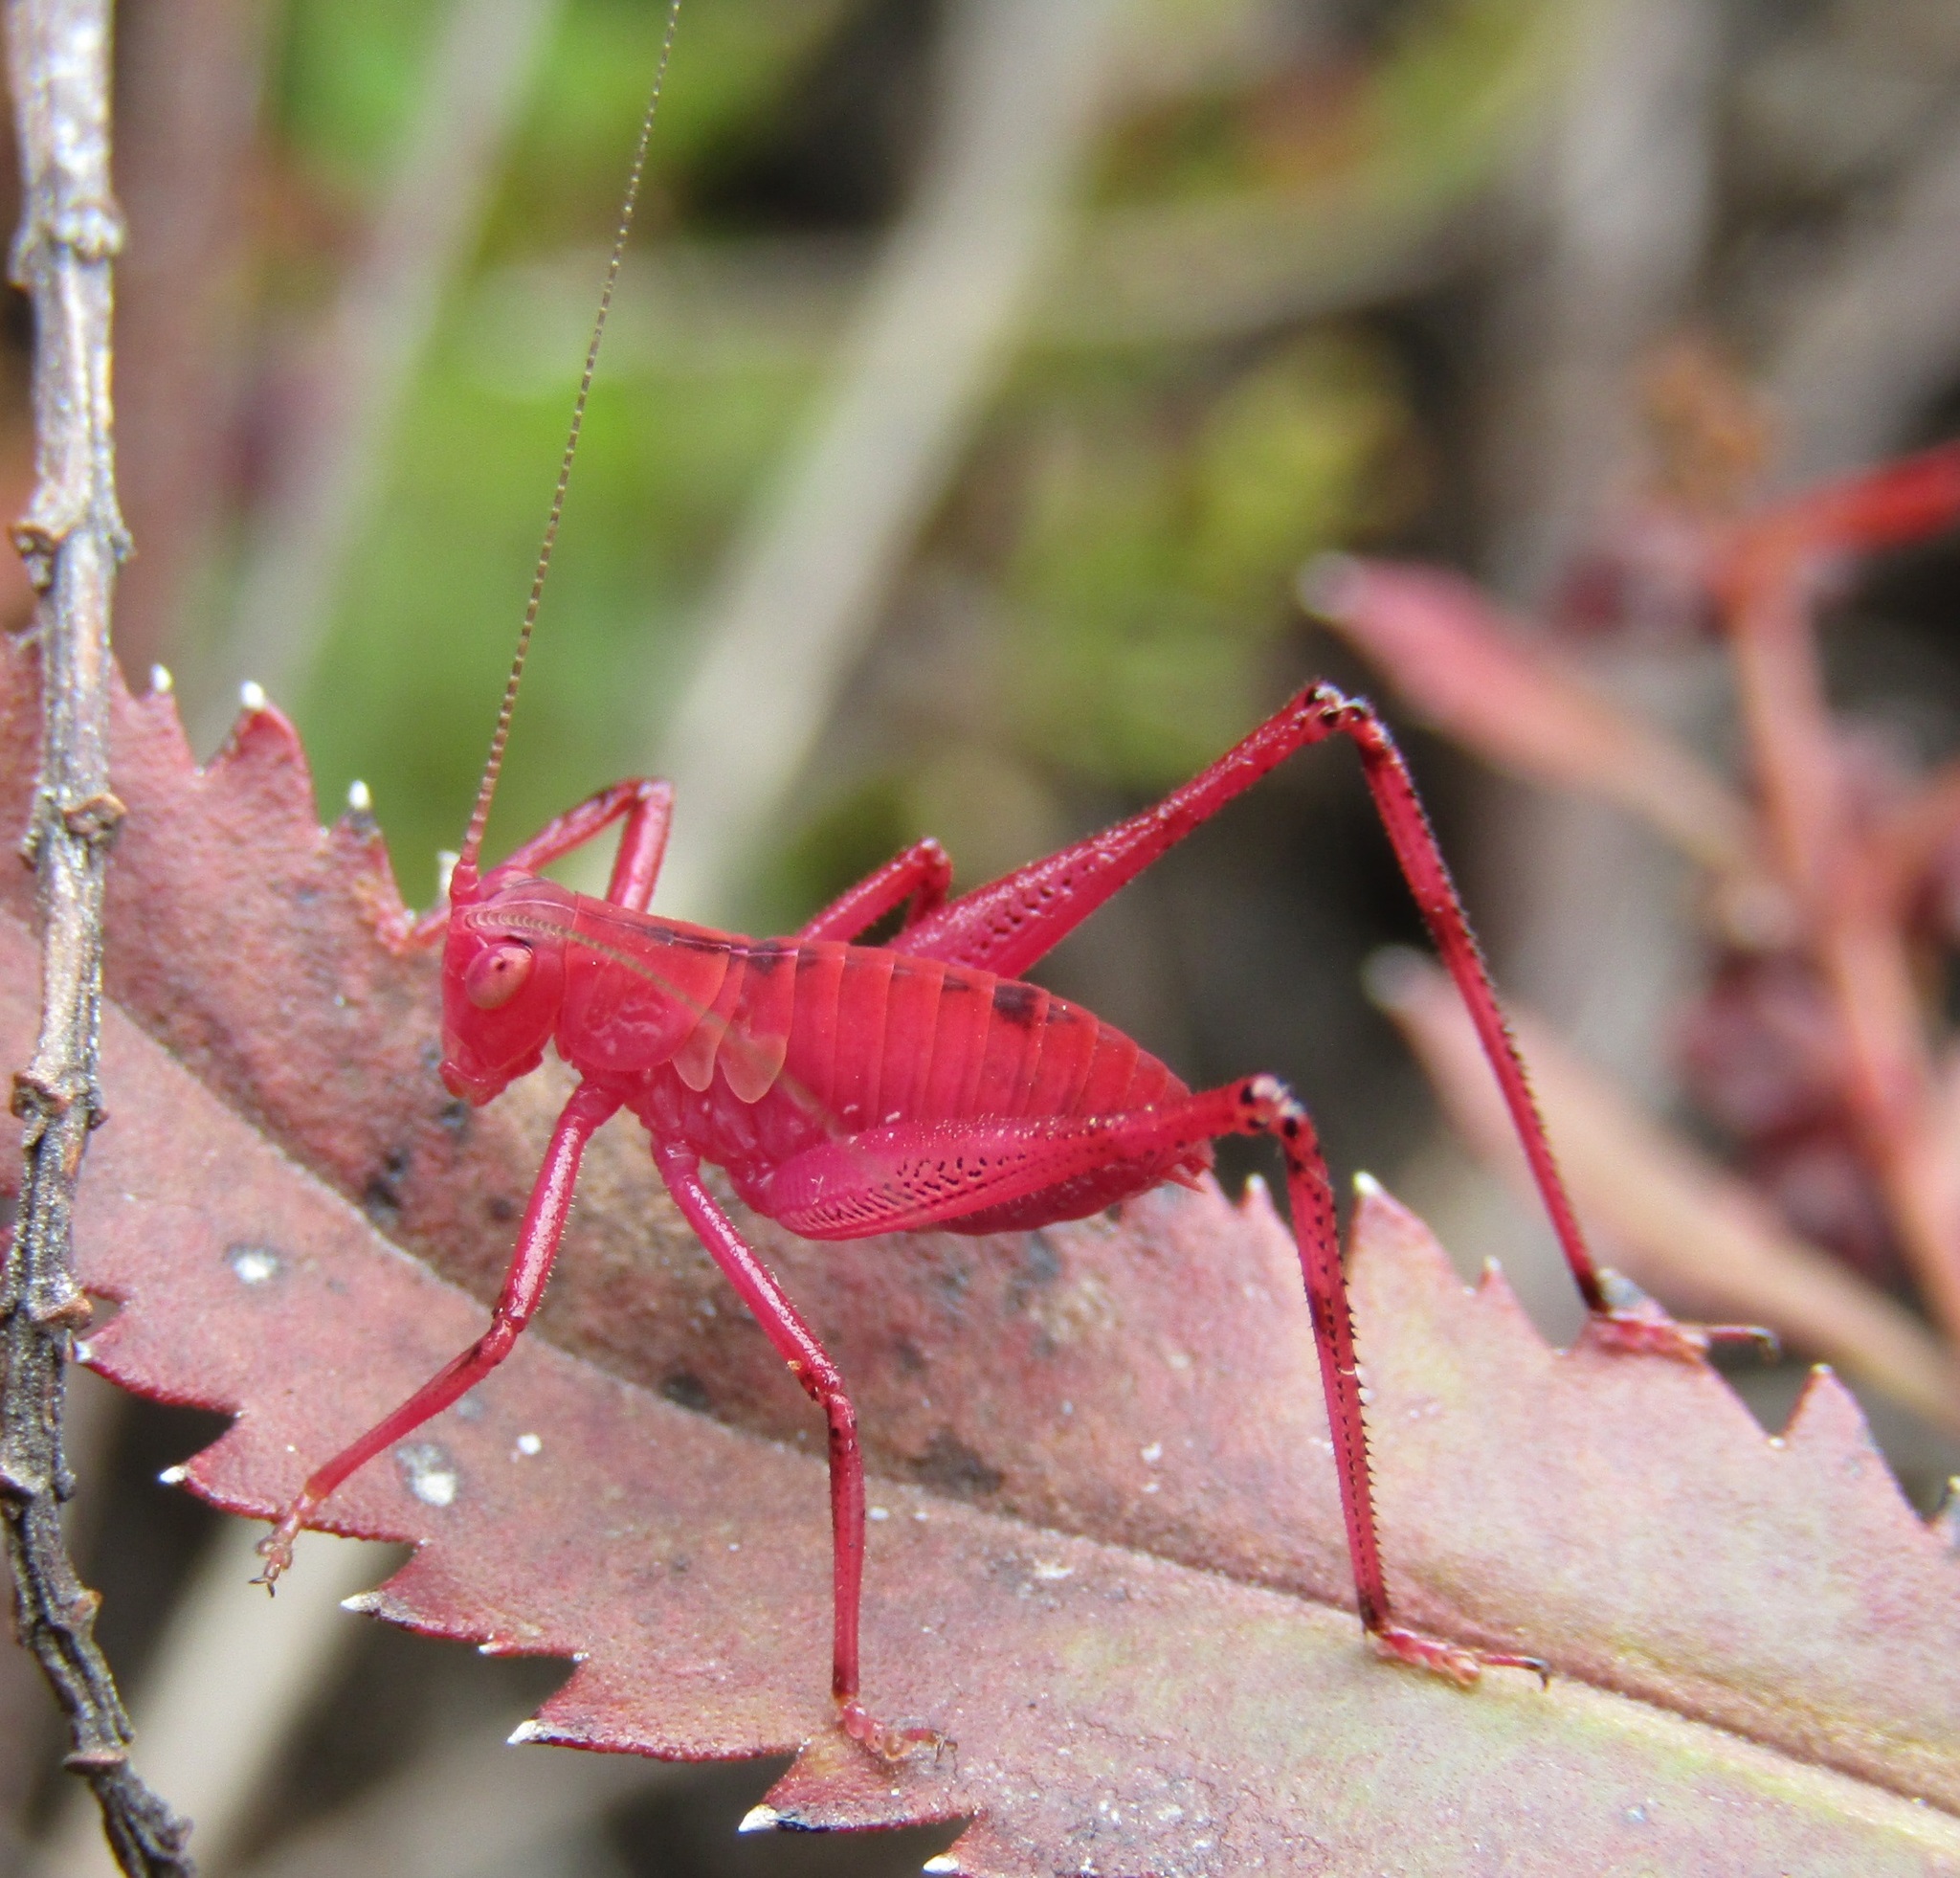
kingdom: Animalia
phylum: Arthropoda
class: Insecta
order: Orthoptera
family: Tettigoniidae
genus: Caedicia
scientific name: Caedicia simplex
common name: Common garden katydid
